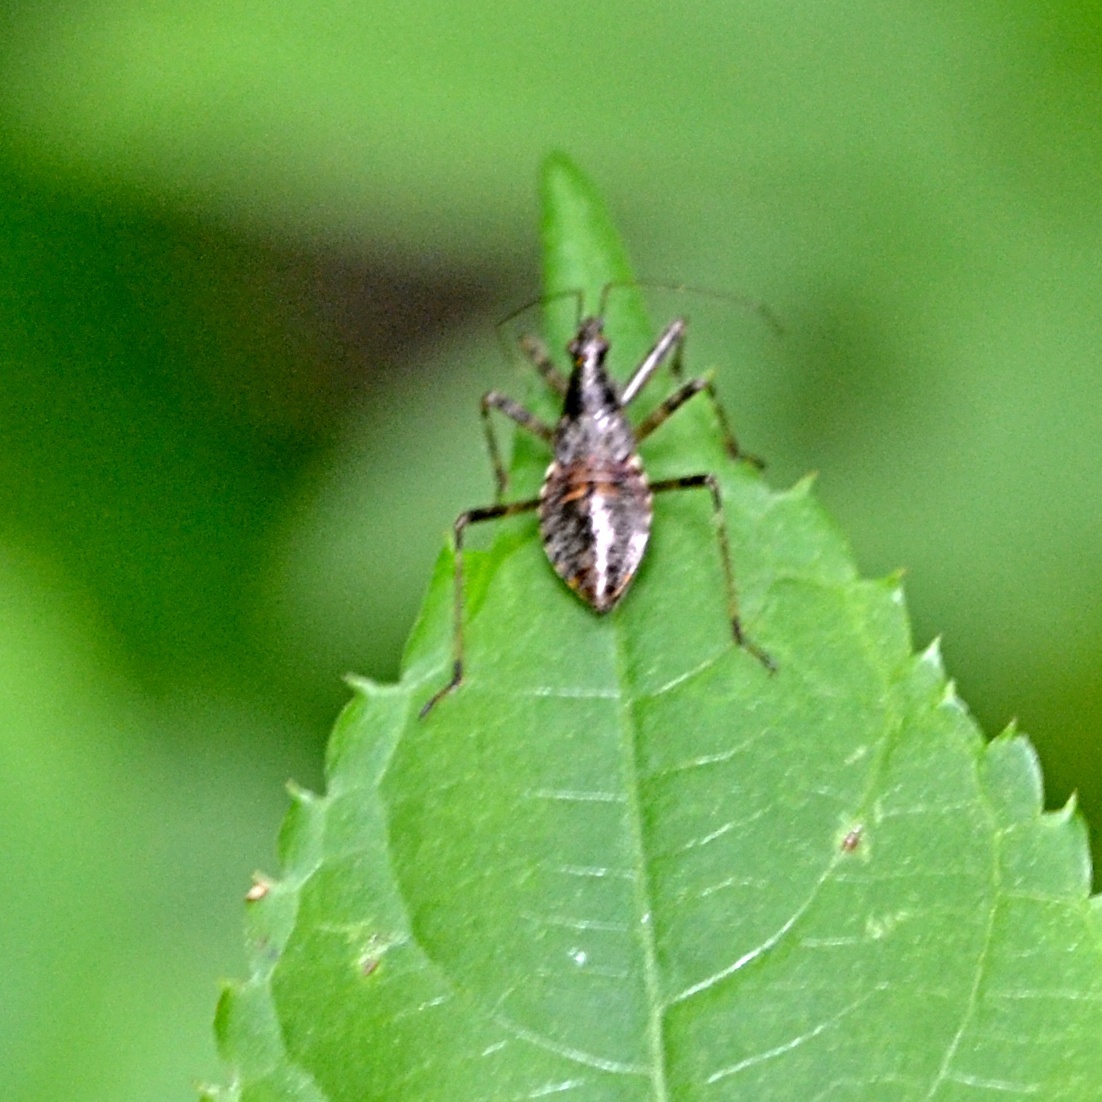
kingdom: Animalia
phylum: Arthropoda
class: Insecta
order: Hemiptera
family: Nabidae
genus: Himacerus
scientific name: Himacerus apterus
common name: Tree damsel bug
